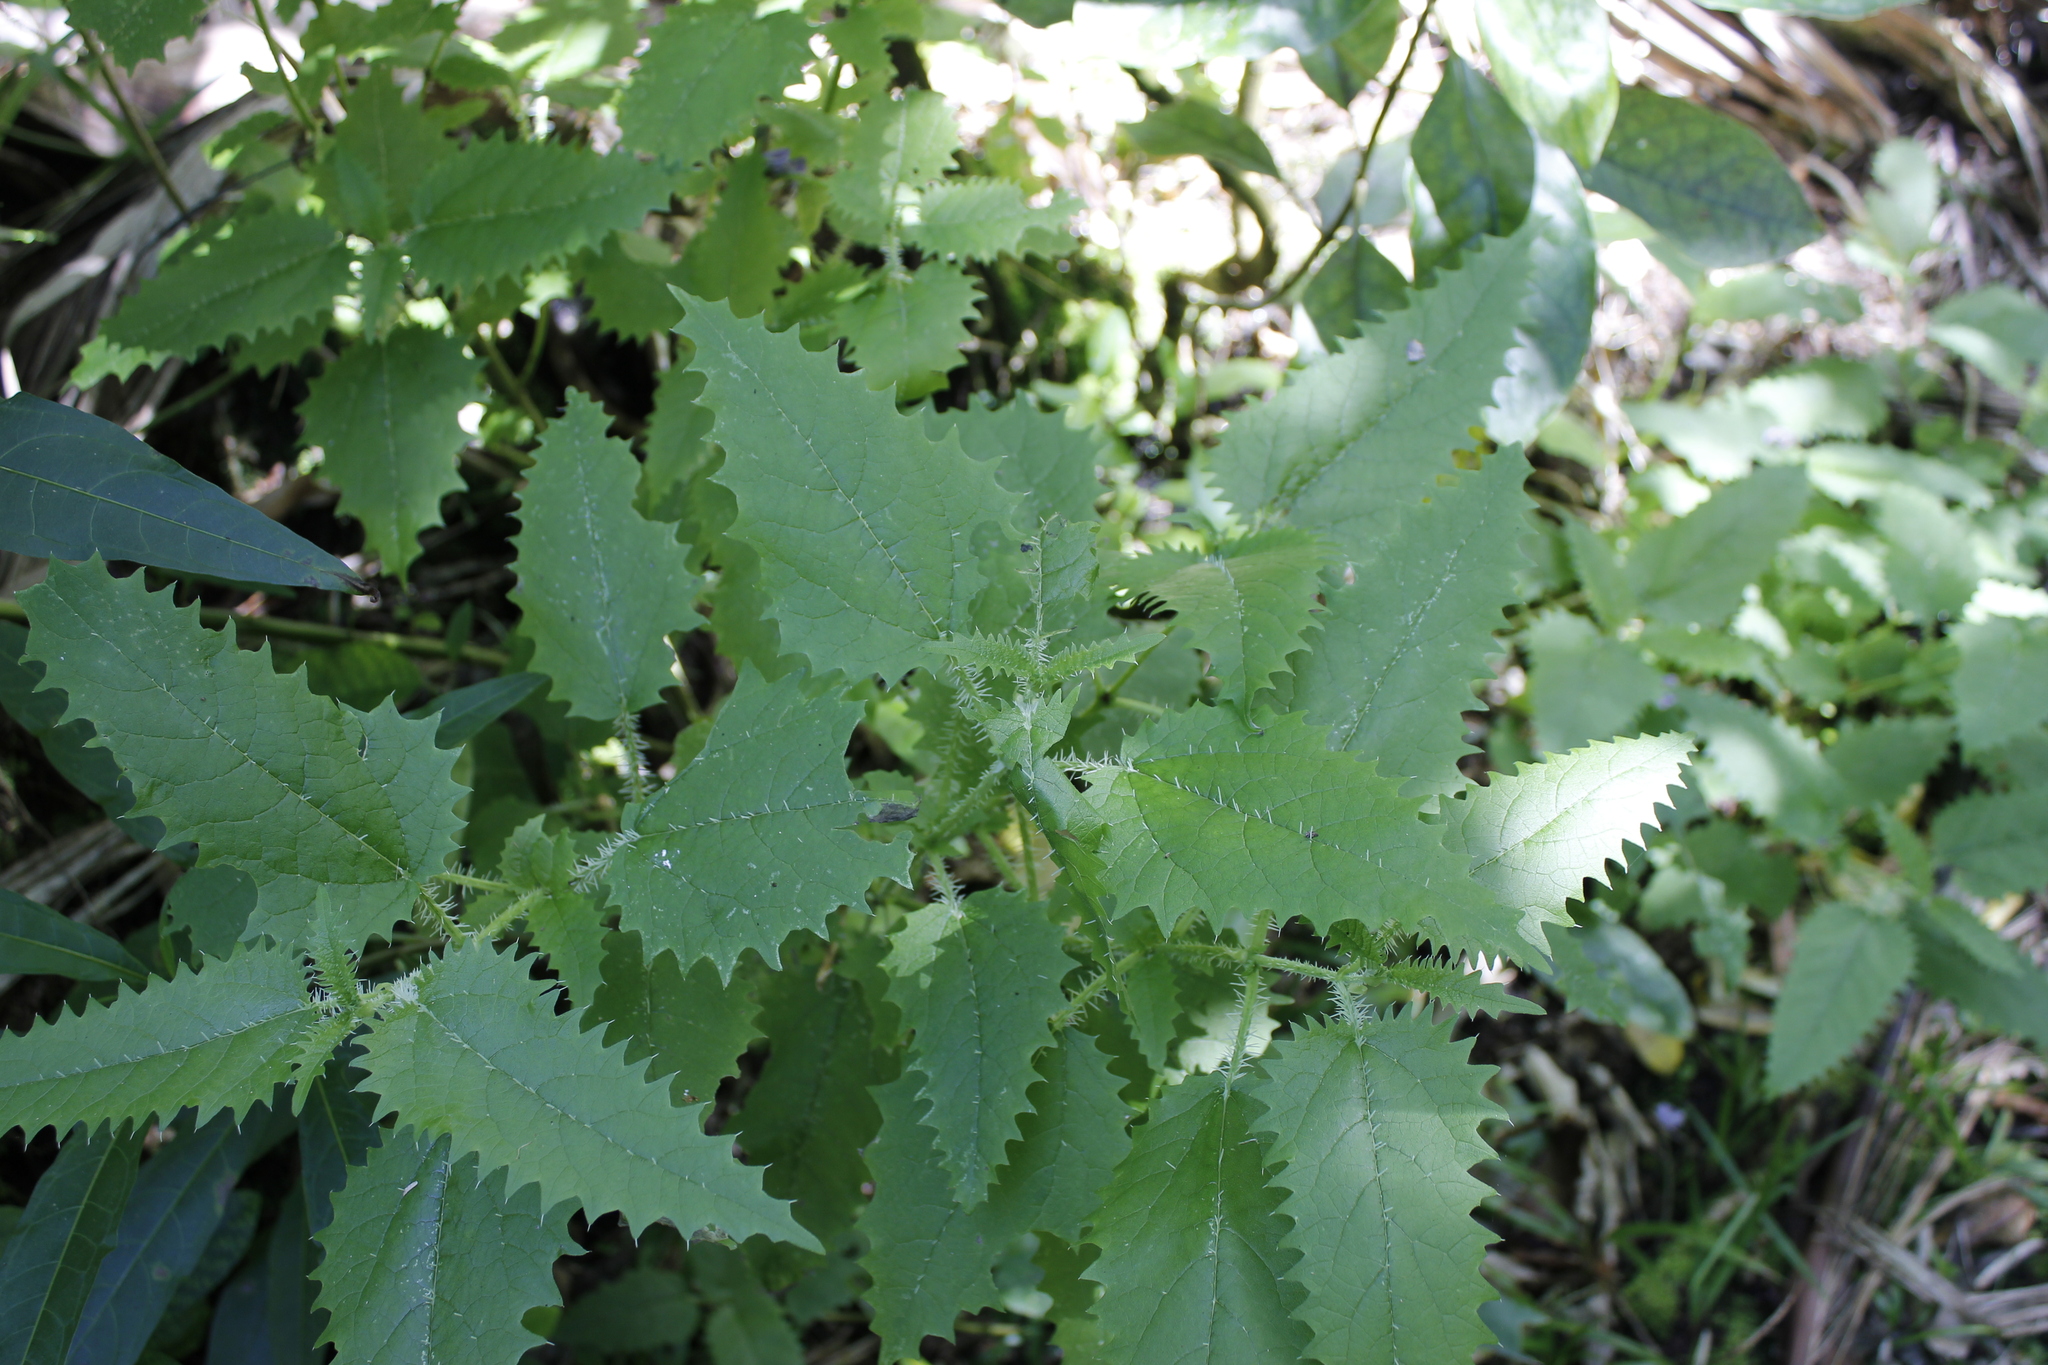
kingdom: Plantae
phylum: Tracheophyta
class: Magnoliopsida
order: Rosales
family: Urticaceae
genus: Urtica
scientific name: Urtica ferox
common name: Tree nettle
